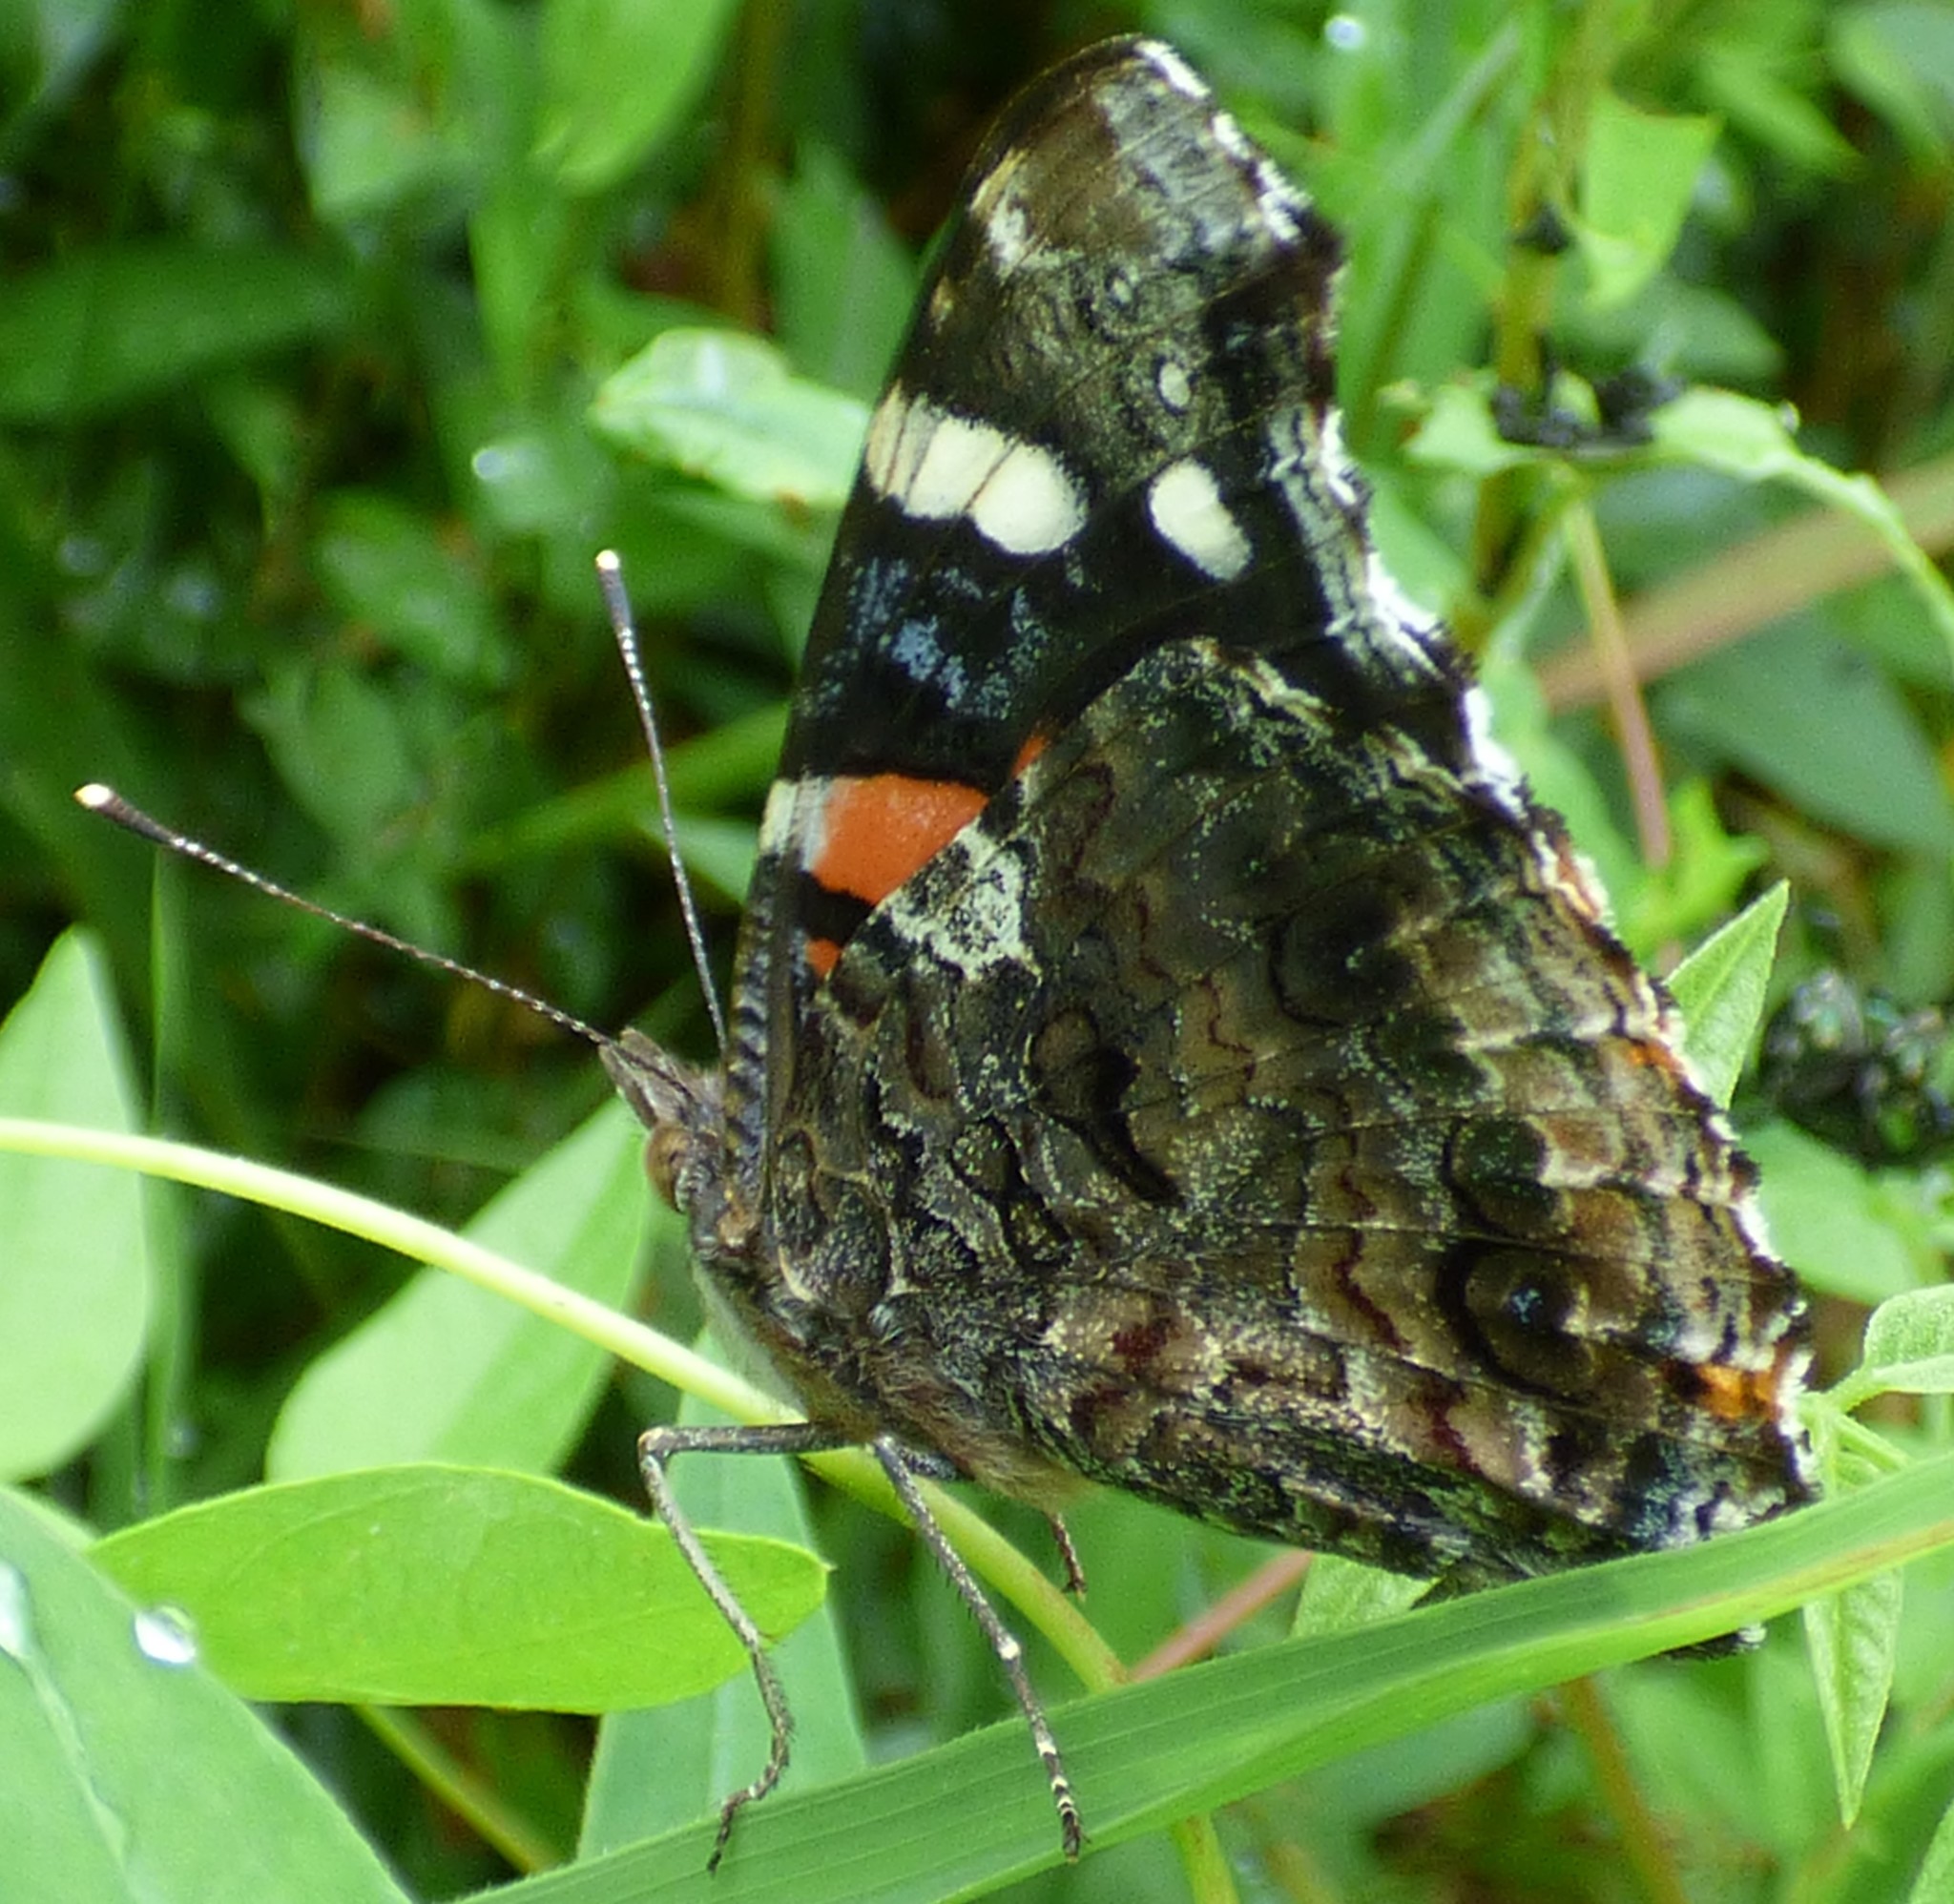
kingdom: Animalia
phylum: Arthropoda
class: Insecta
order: Lepidoptera
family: Nymphalidae
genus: Vanessa
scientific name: Vanessa atalanta
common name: Red admiral
